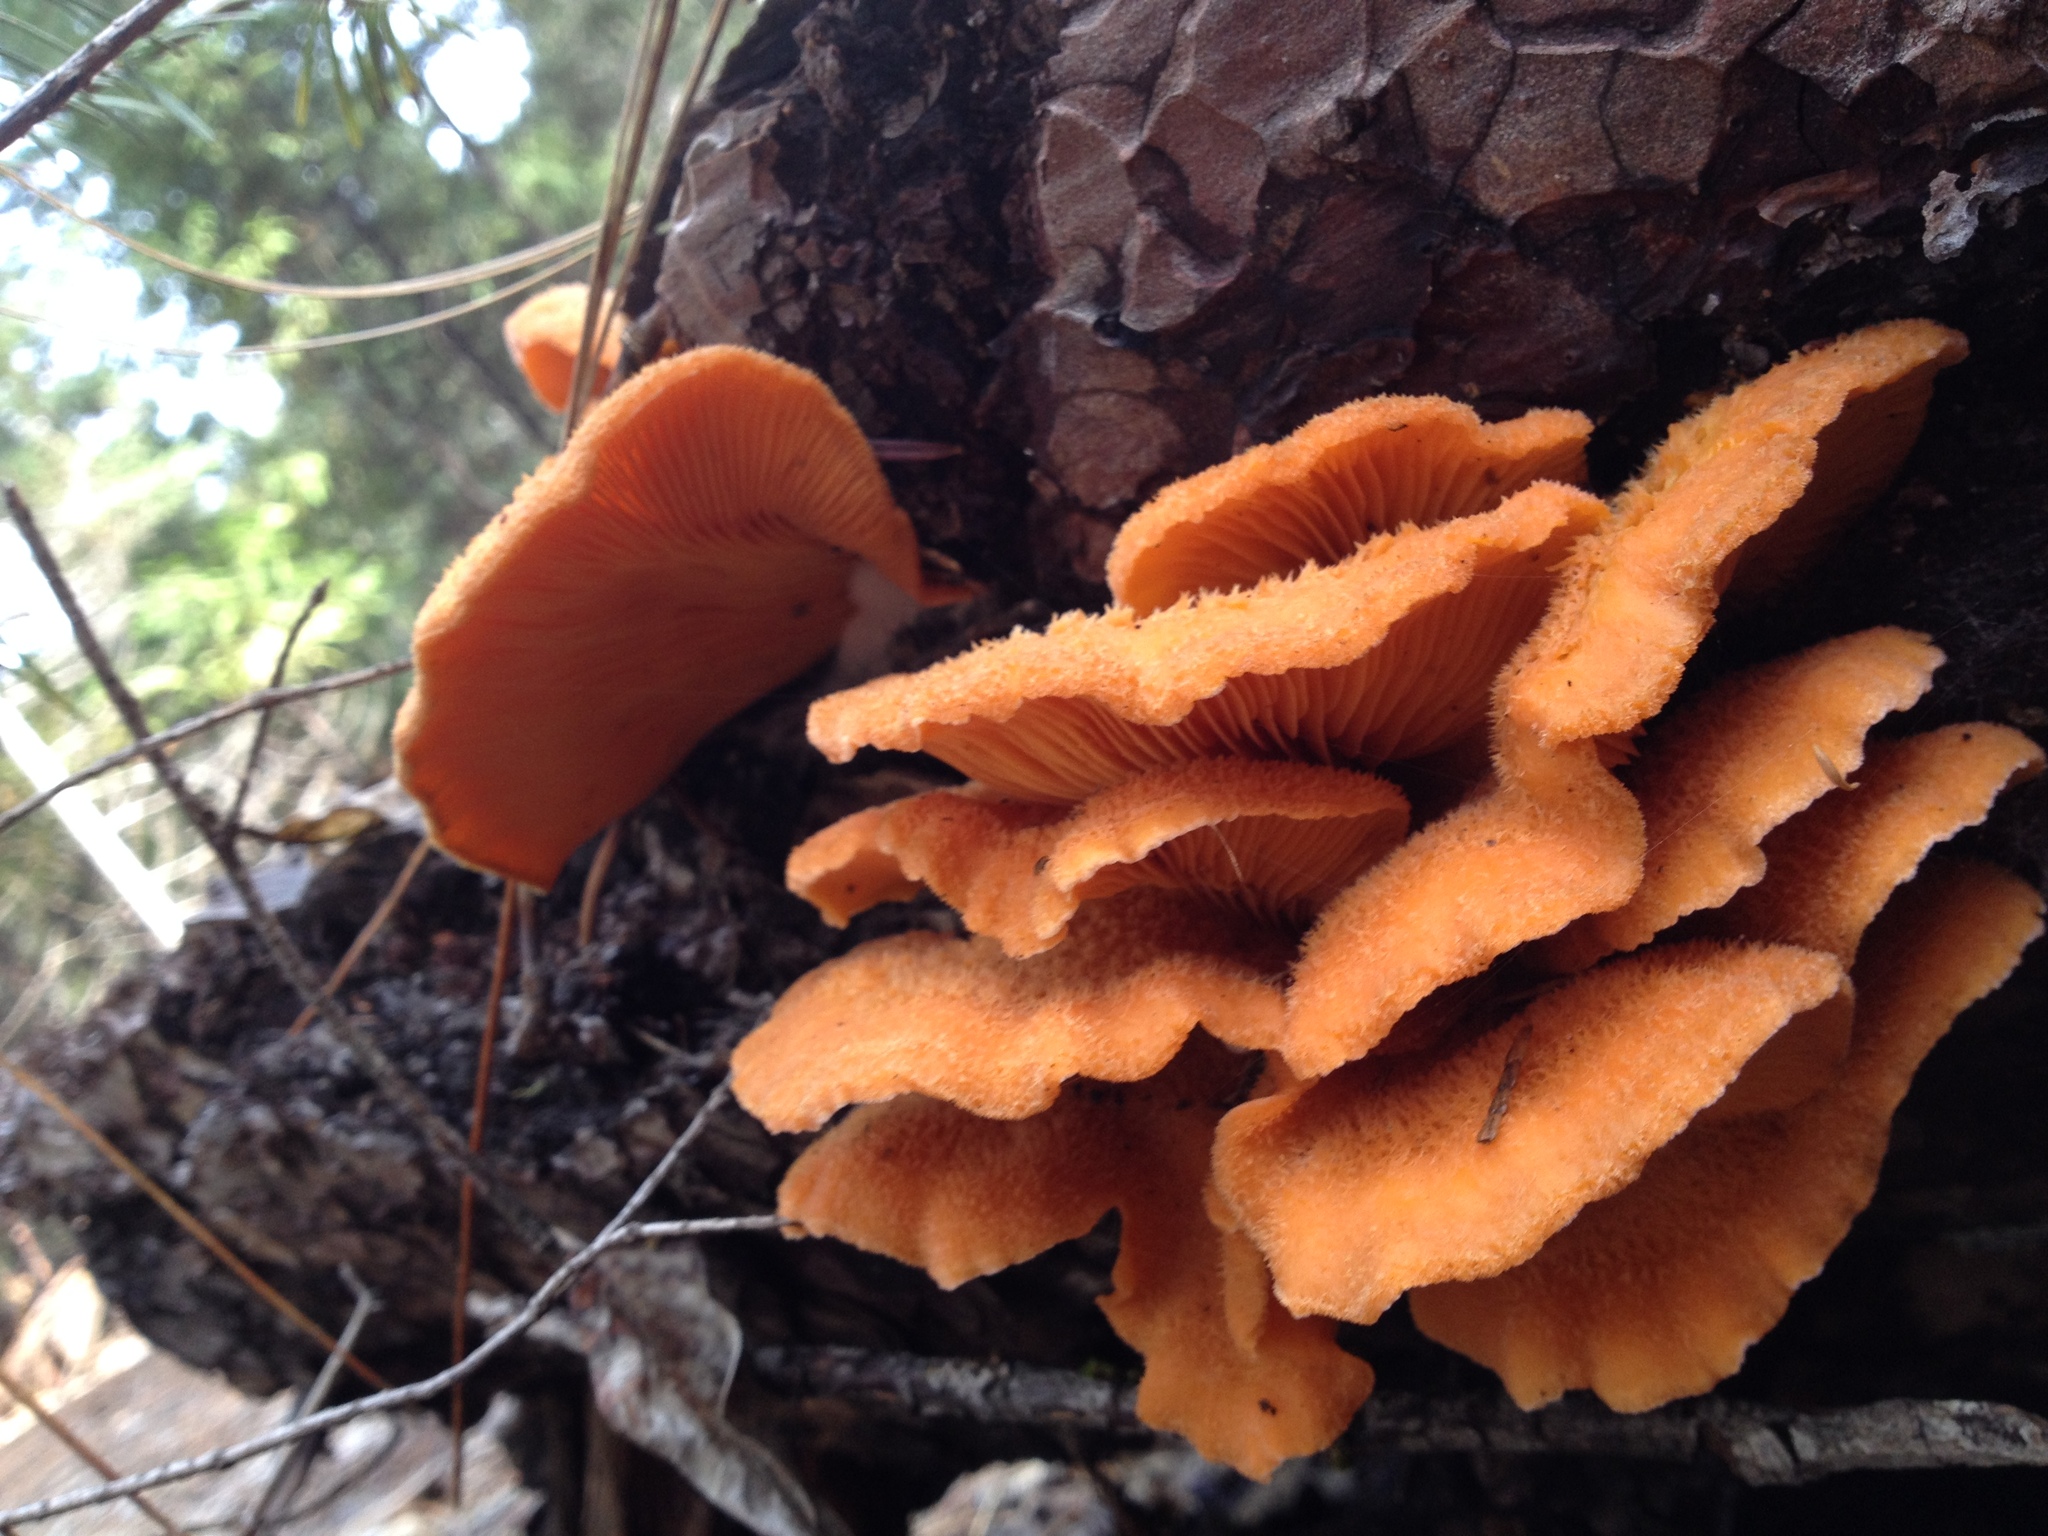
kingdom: Fungi
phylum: Basidiomycota
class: Agaricomycetes
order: Agaricales
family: Phyllotopsidaceae
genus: Phyllotopsis
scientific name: Phyllotopsis nidulans
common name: Orange mock oyster
